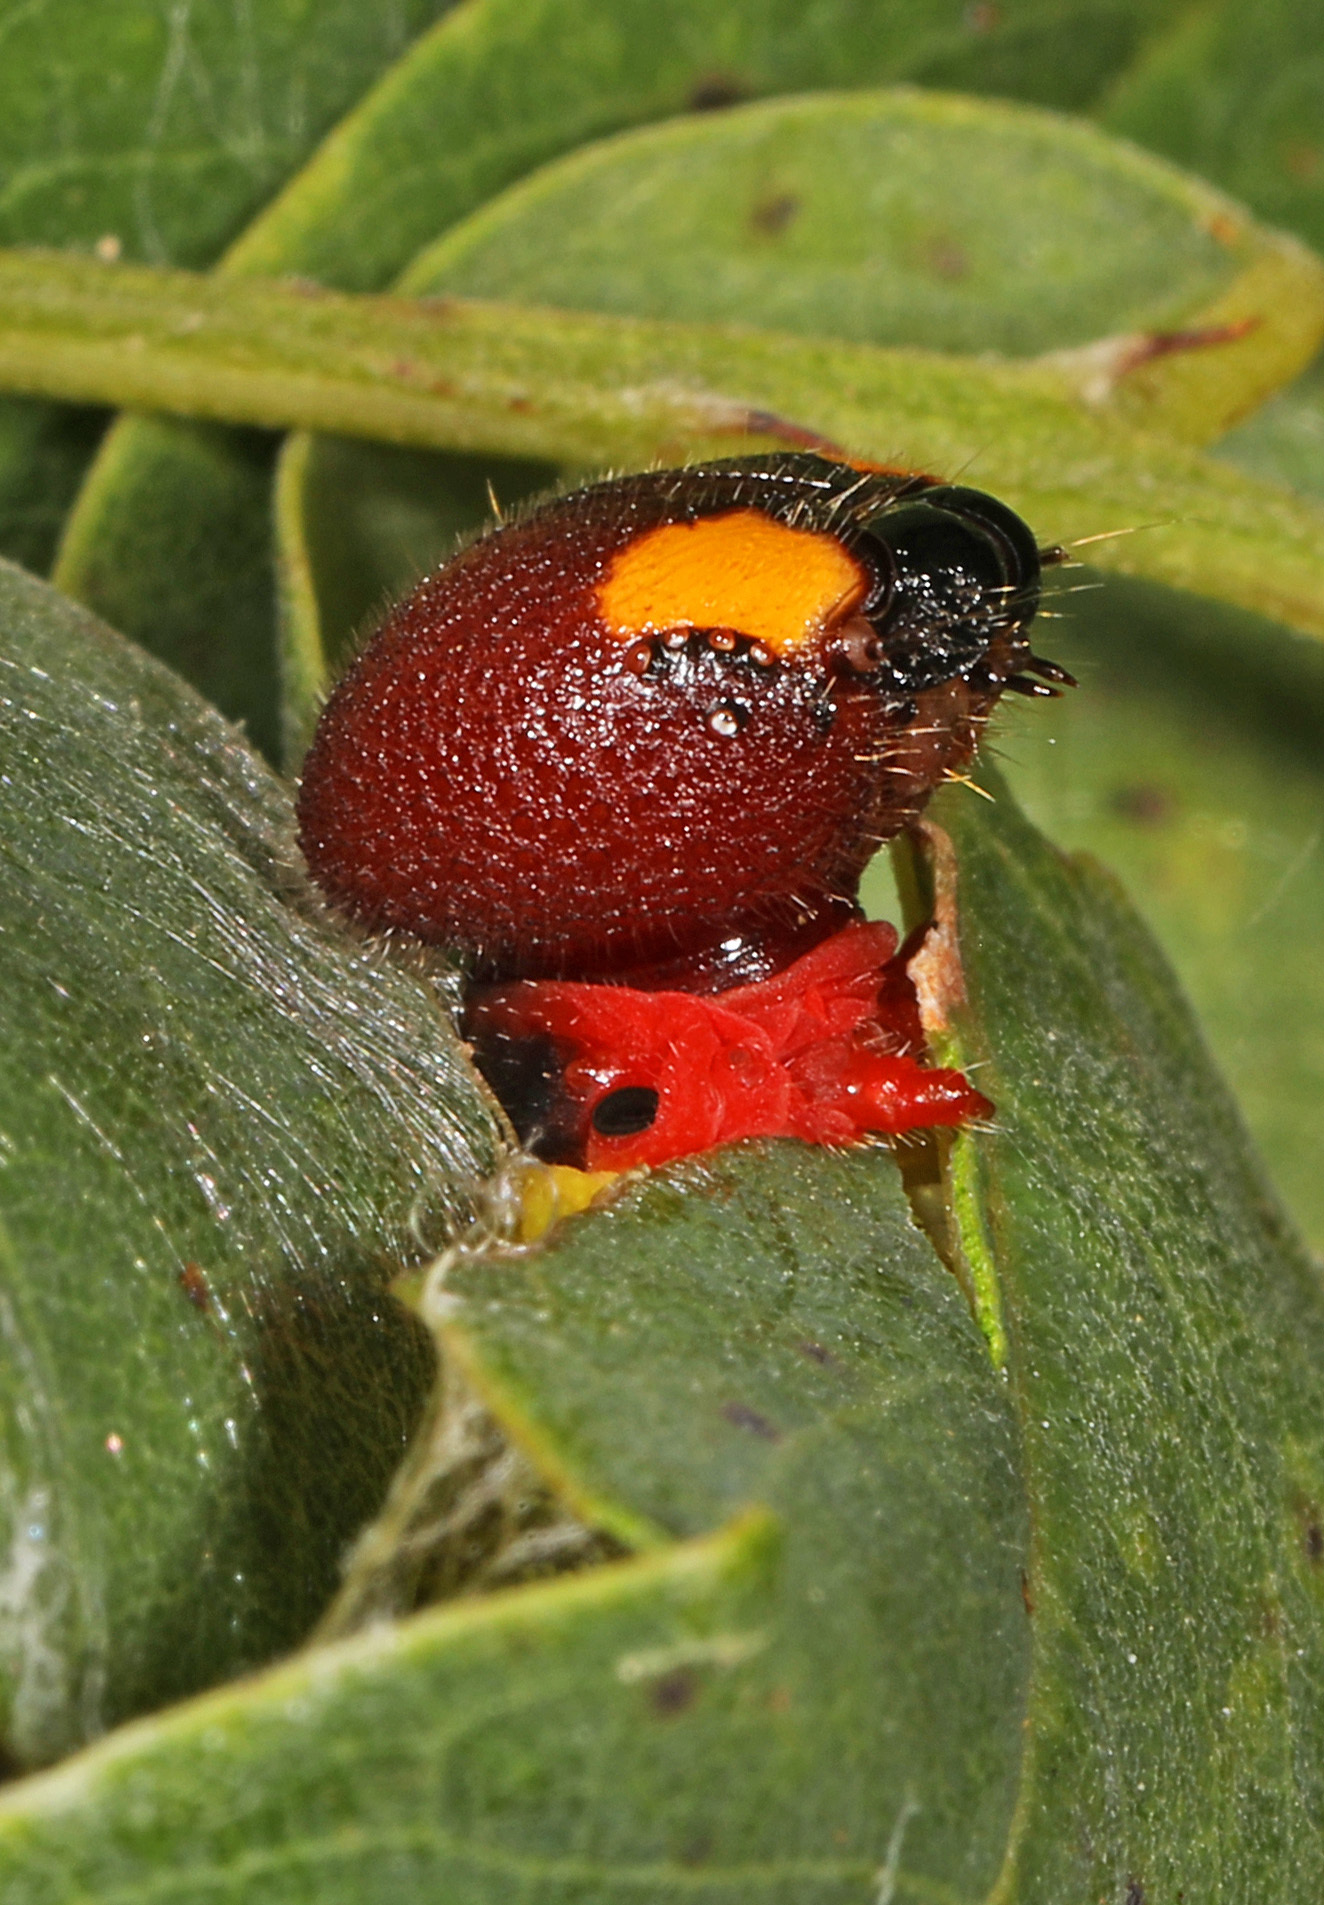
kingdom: Animalia
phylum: Arthropoda
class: Insecta
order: Lepidoptera
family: Hesperiidae
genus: Epargyreus
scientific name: Epargyreus clarus
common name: Silver-spotted skipper
